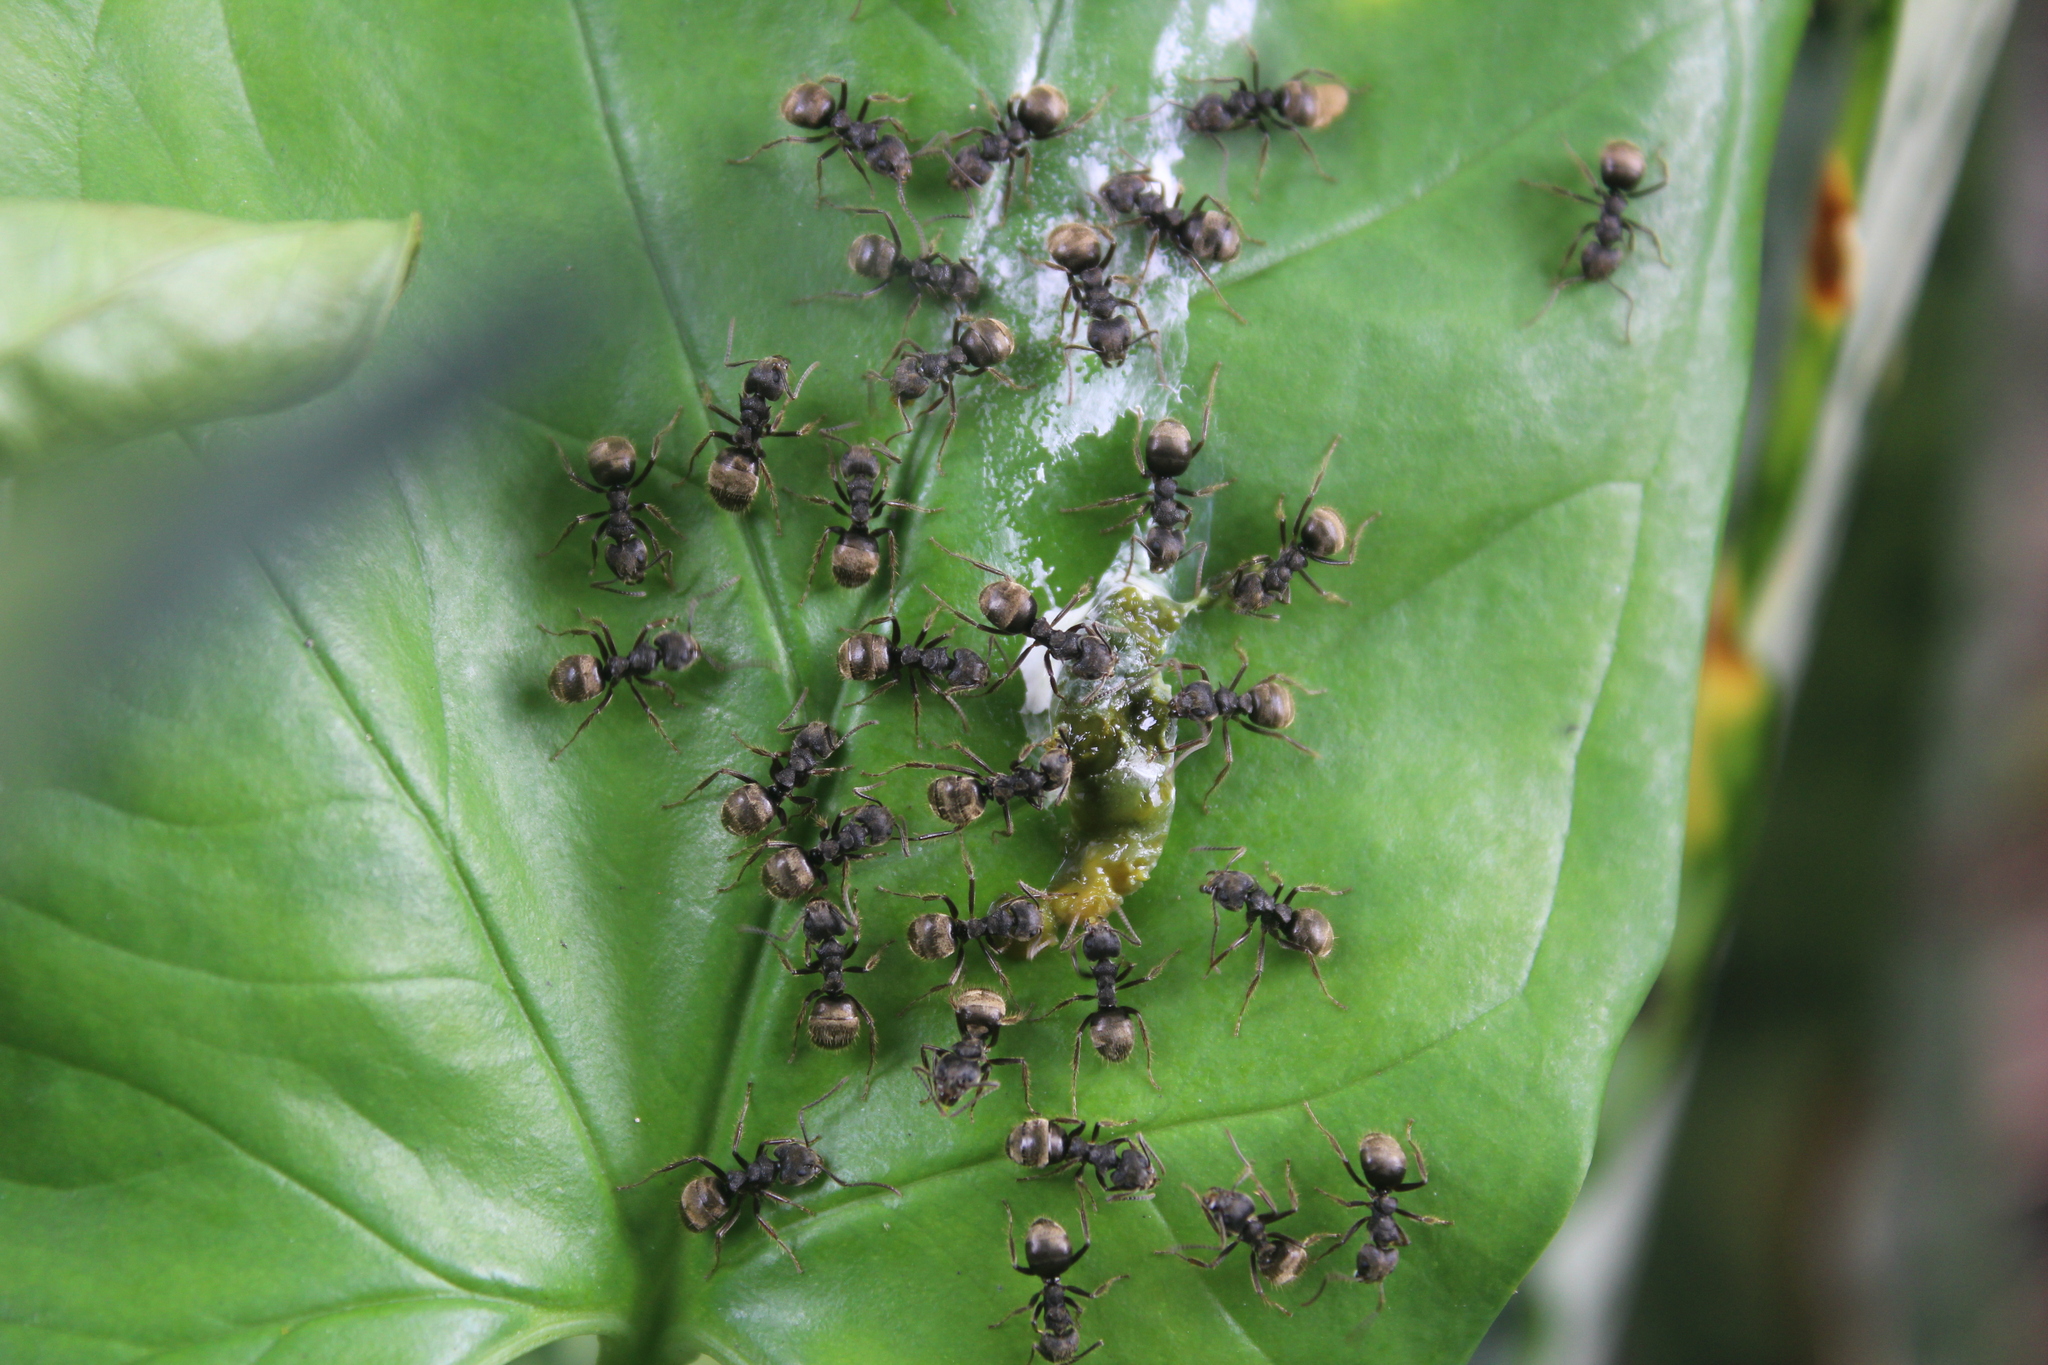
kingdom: Animalia
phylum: Arthropoda
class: Insecta
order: Hymenoptera
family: Formicidae
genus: Dolichoderus
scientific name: Dolichoderus bispinosus
